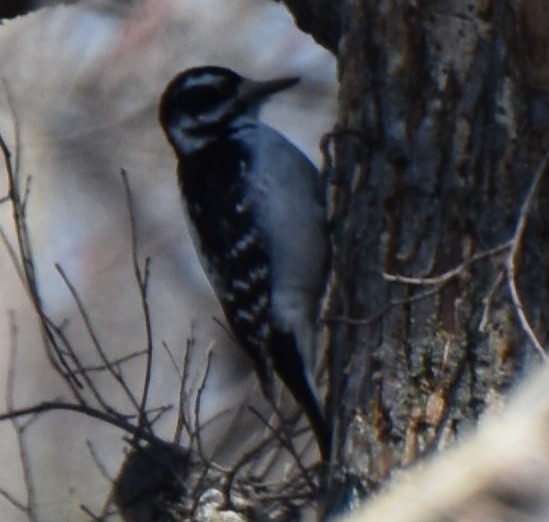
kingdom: Animalia
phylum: Chordata
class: Aves
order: Piciformes
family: Picidae
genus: Leuconotopicus
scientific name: Leuconotopicus villosus
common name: Hairy woodpecker
